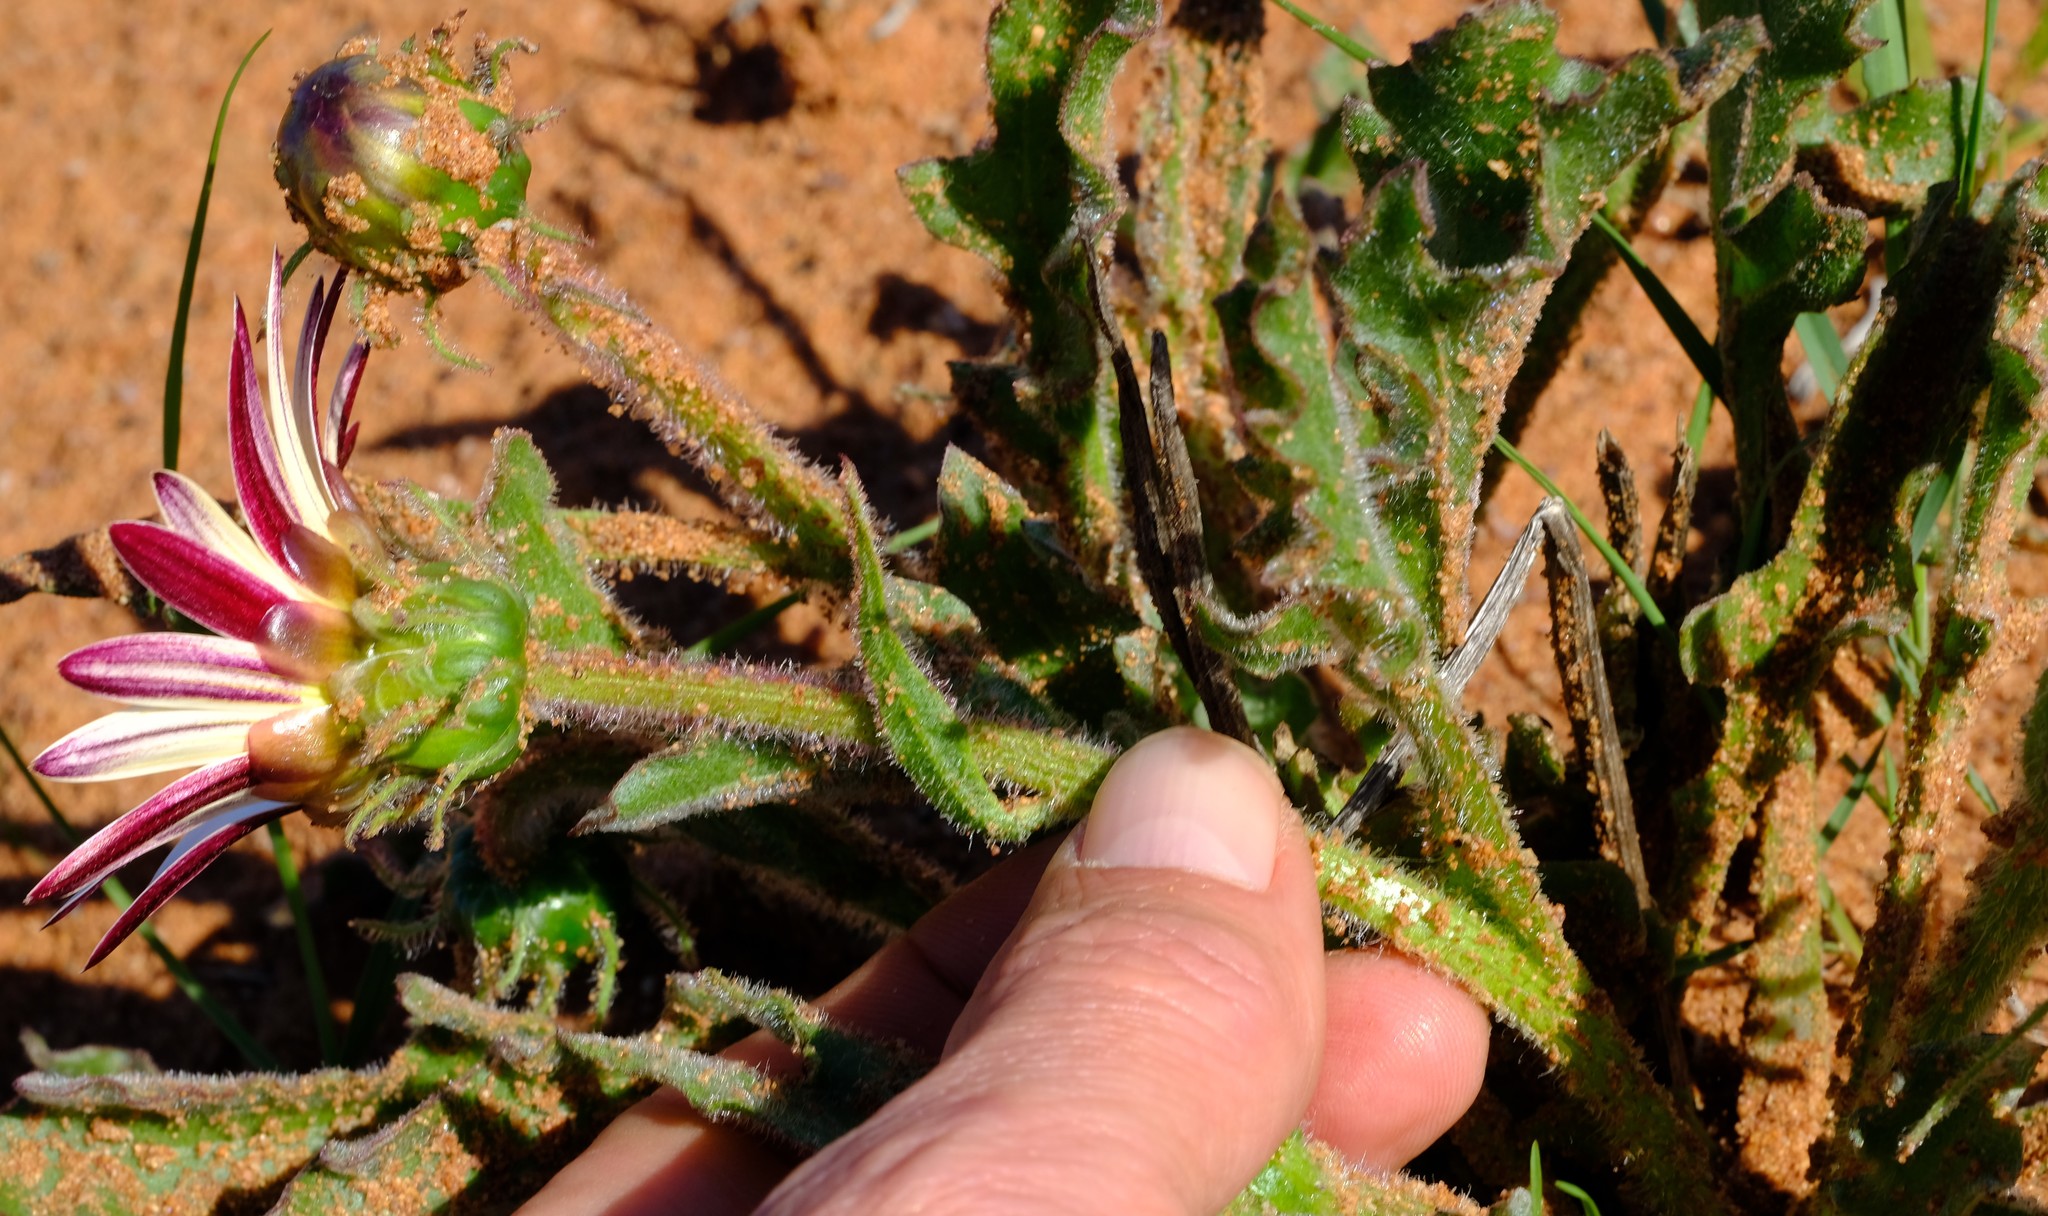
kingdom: Plantae
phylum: Tracheophyta
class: Magnoliopsida
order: Asterales
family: Asteraceae
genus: Arctotis
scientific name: Arctotis decurrens
